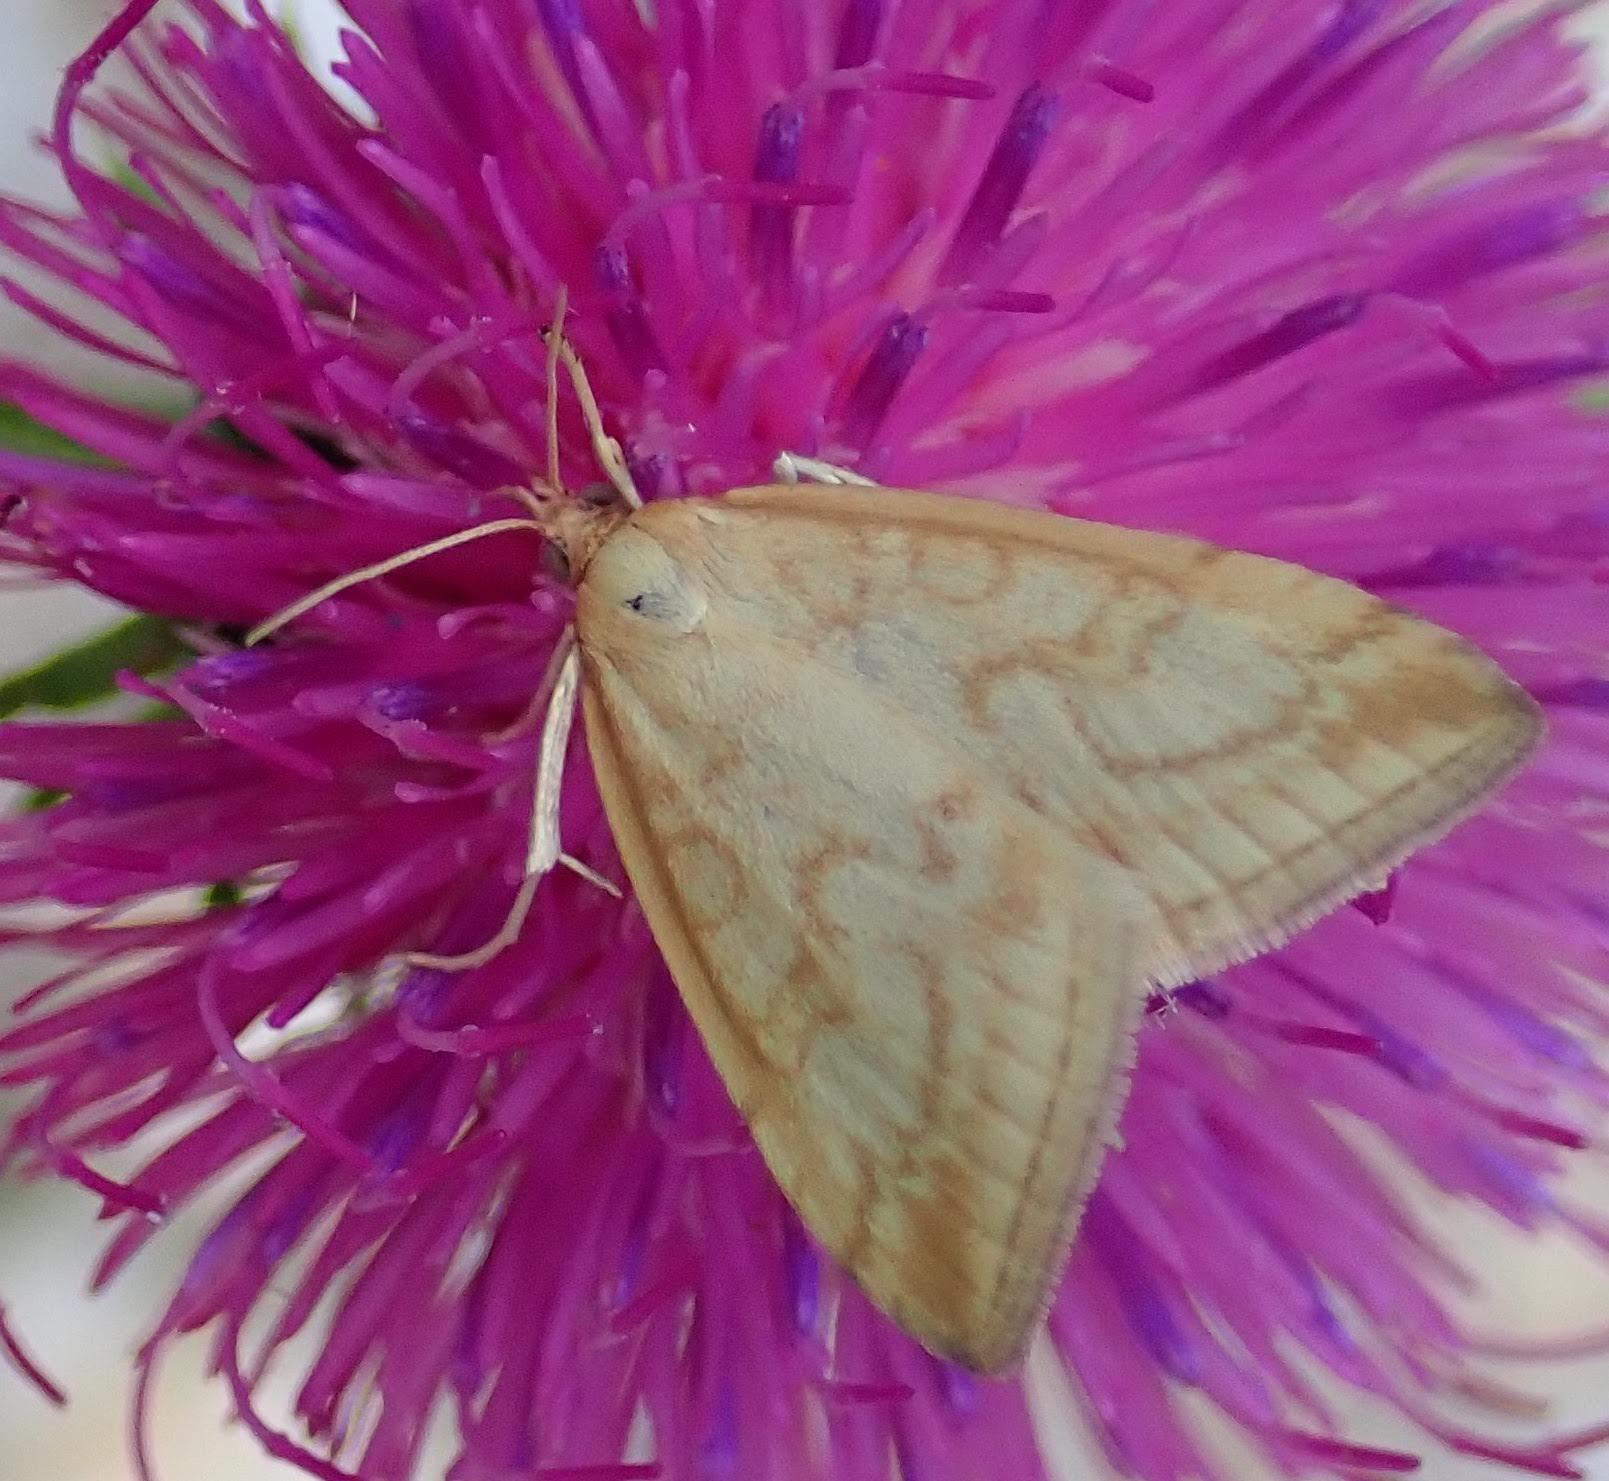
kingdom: Animalia
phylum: Arthropoda
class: Insecta
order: Lepidoptera
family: Crambidae
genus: Udea
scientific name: Udea lutealis
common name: Pale straw pearl
